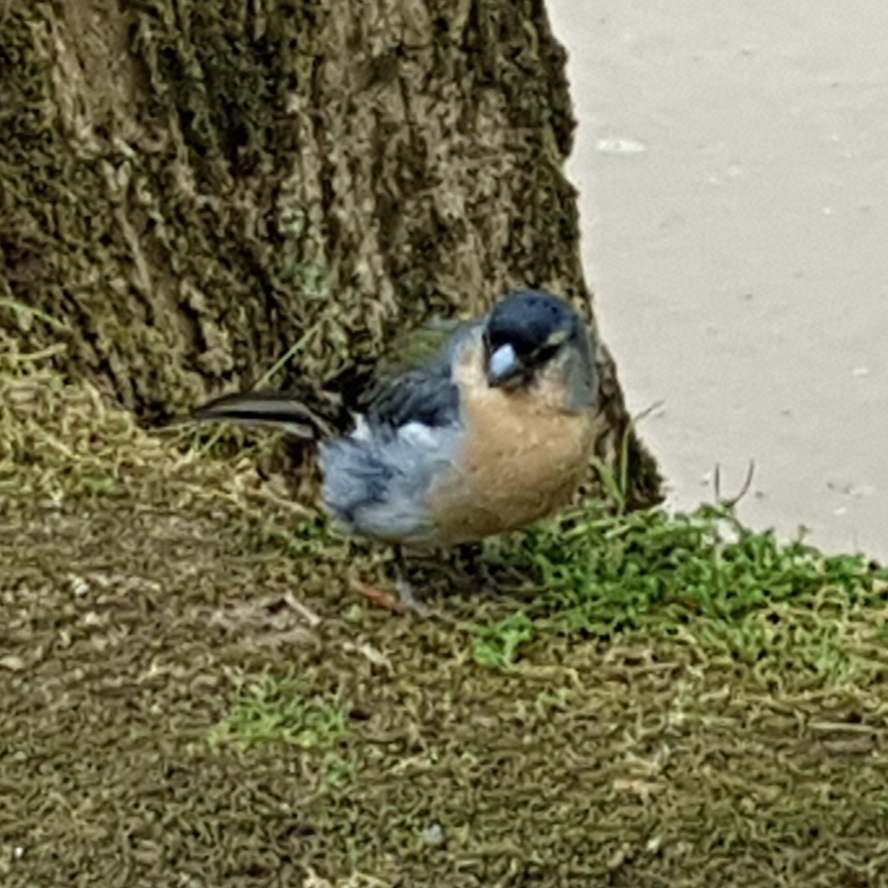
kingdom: Animalia
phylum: Chordata
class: Aves
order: Passeriformes
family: Fringillidae
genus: Fringilla
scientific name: Fringilla moreletti
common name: Azores chaffinch
